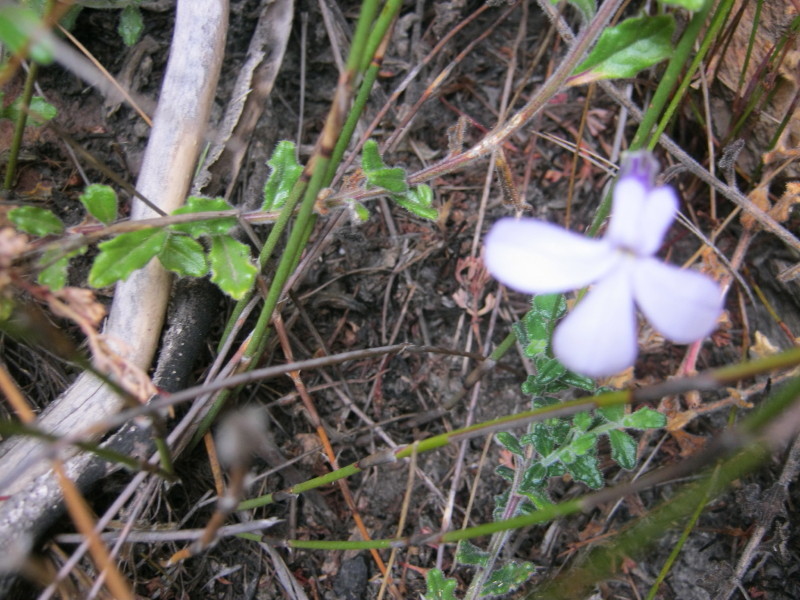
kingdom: Plantae
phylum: Tracheophyta
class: Magnoliopsida
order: Asterales
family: Campanulaceae
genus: Lobelia
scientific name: Lobelia dichroma
